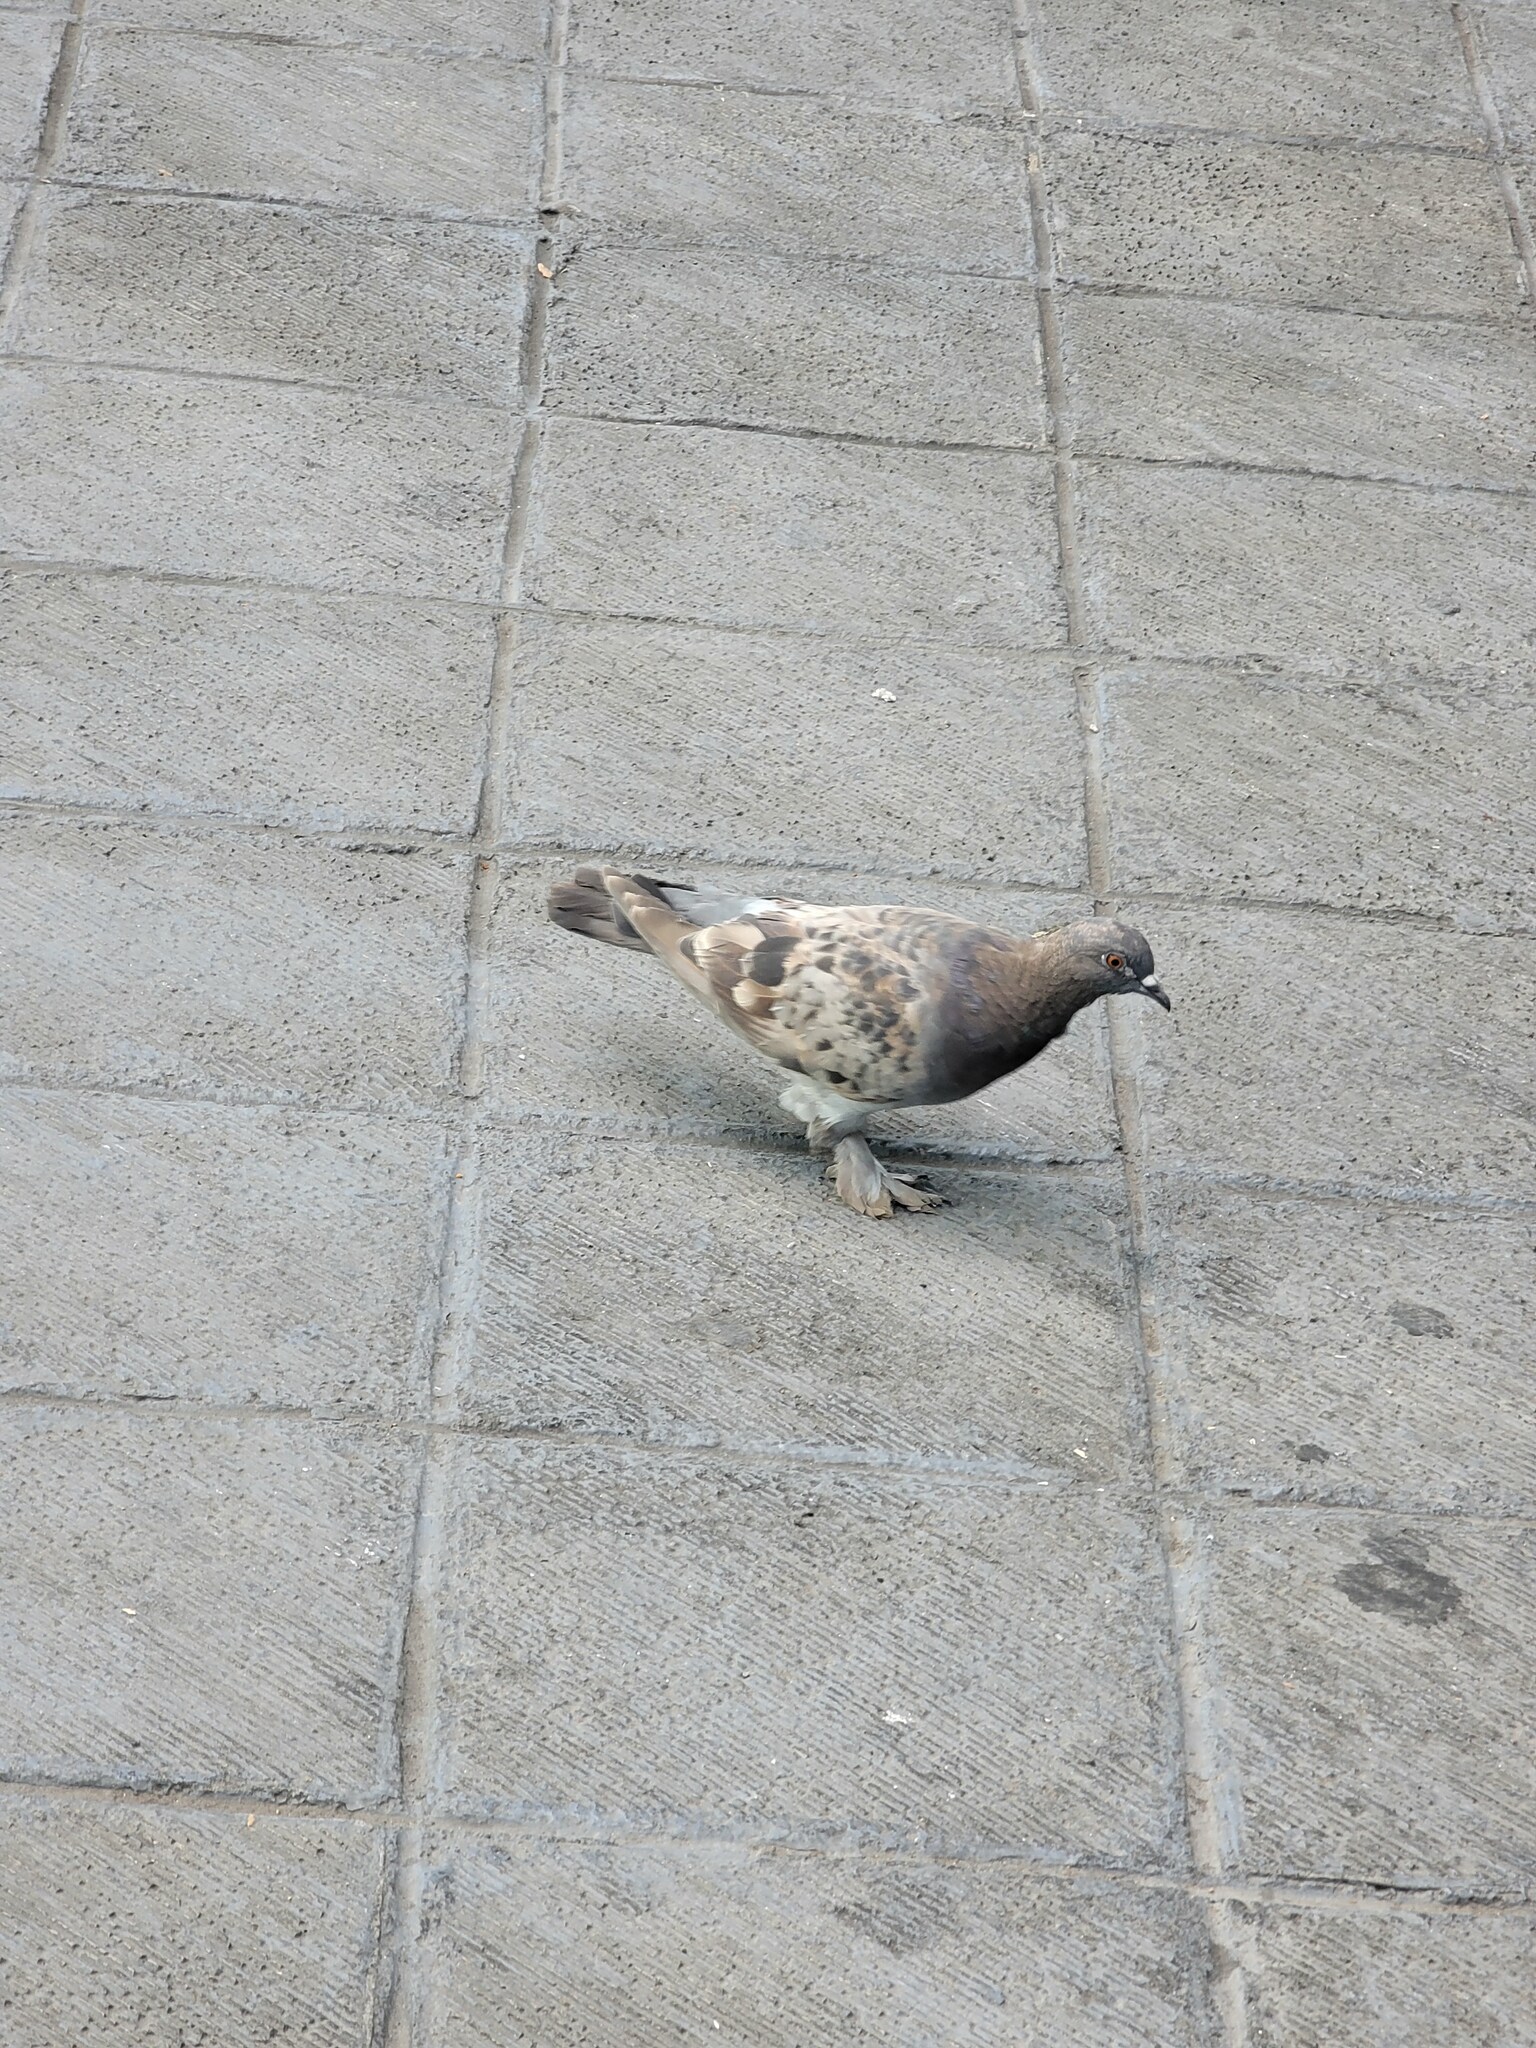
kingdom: Animalia
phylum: Chordata
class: Aves
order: Columbiformes
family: Columbidae
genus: Columba
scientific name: Columba livia
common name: Rock pigeon
